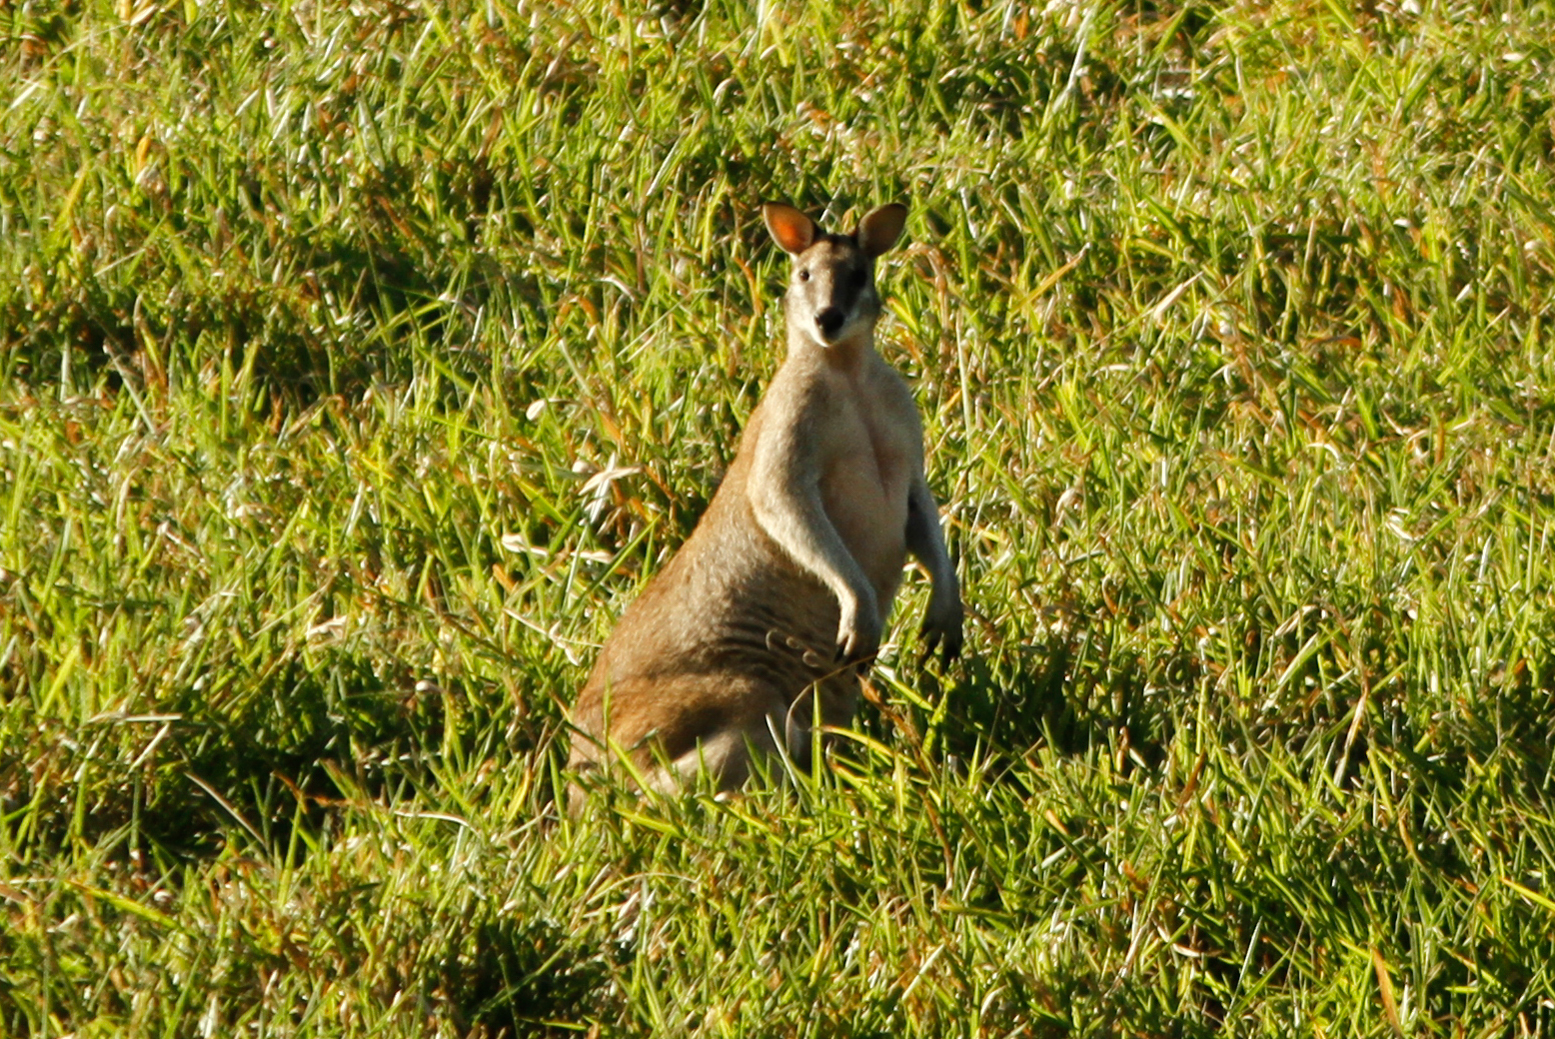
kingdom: Animalia
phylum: Chordata
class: Mammalia
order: Diprotodontia
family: Macropodidae
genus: Macropus
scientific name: Macropus agilis
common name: Agile wallaby
